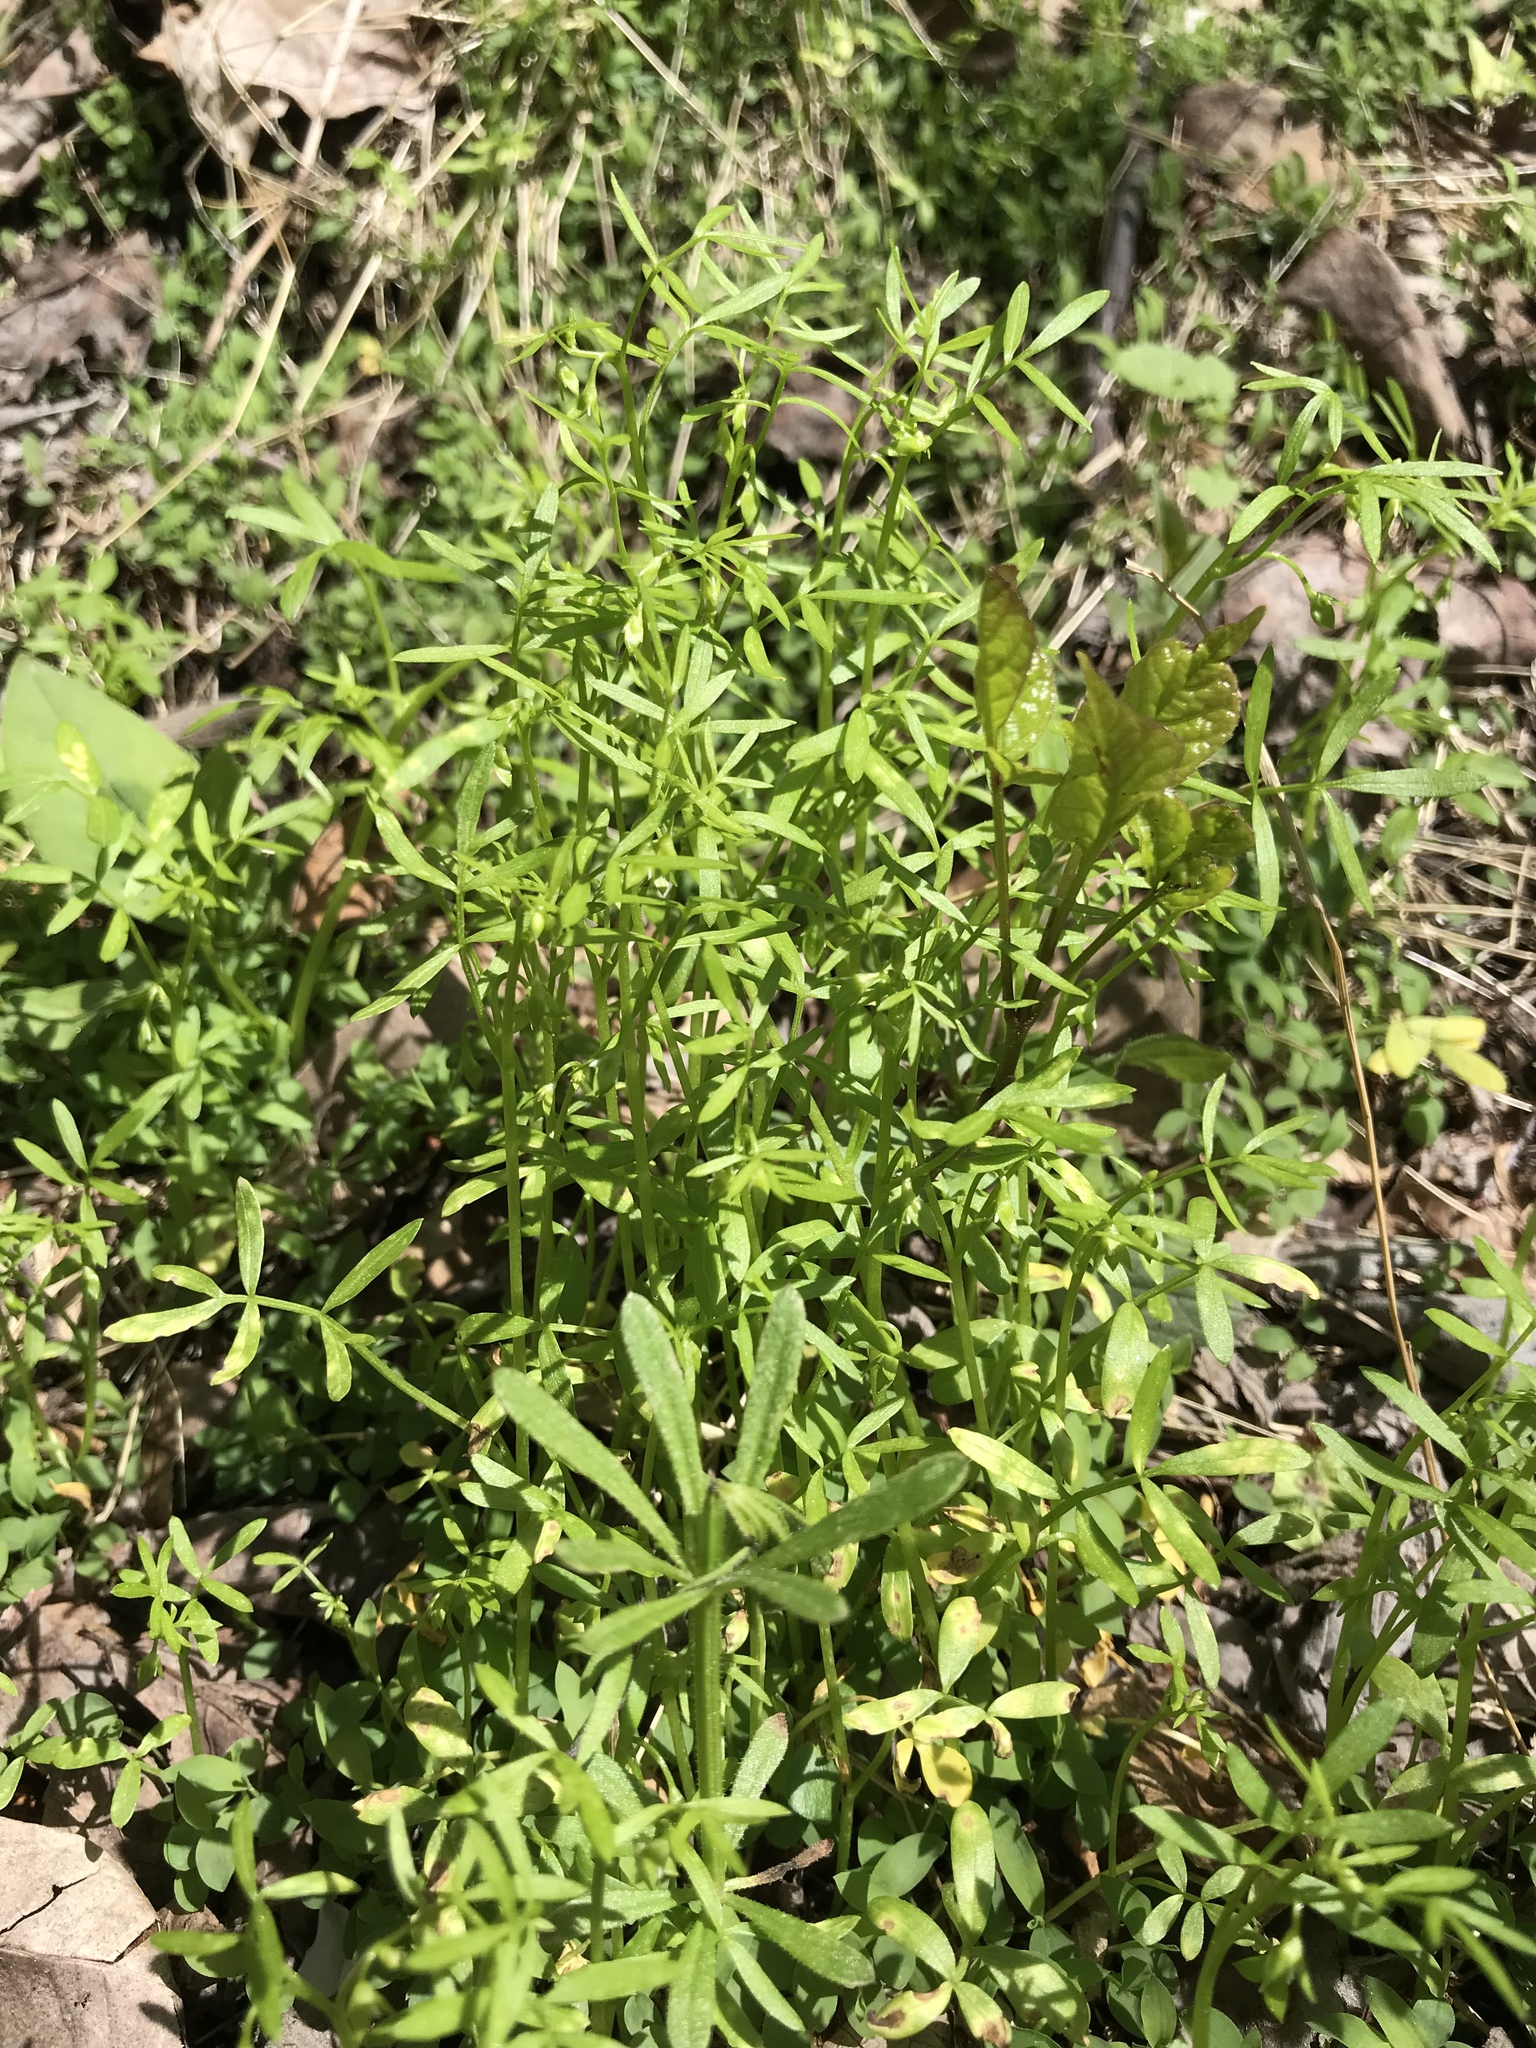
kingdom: Plantae
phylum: Tracheophyta
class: Magnoliopsida
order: Brassicales
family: Limnanthaceae
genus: Floerkea
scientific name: Floerkea proserpinacoides
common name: False mermaid
